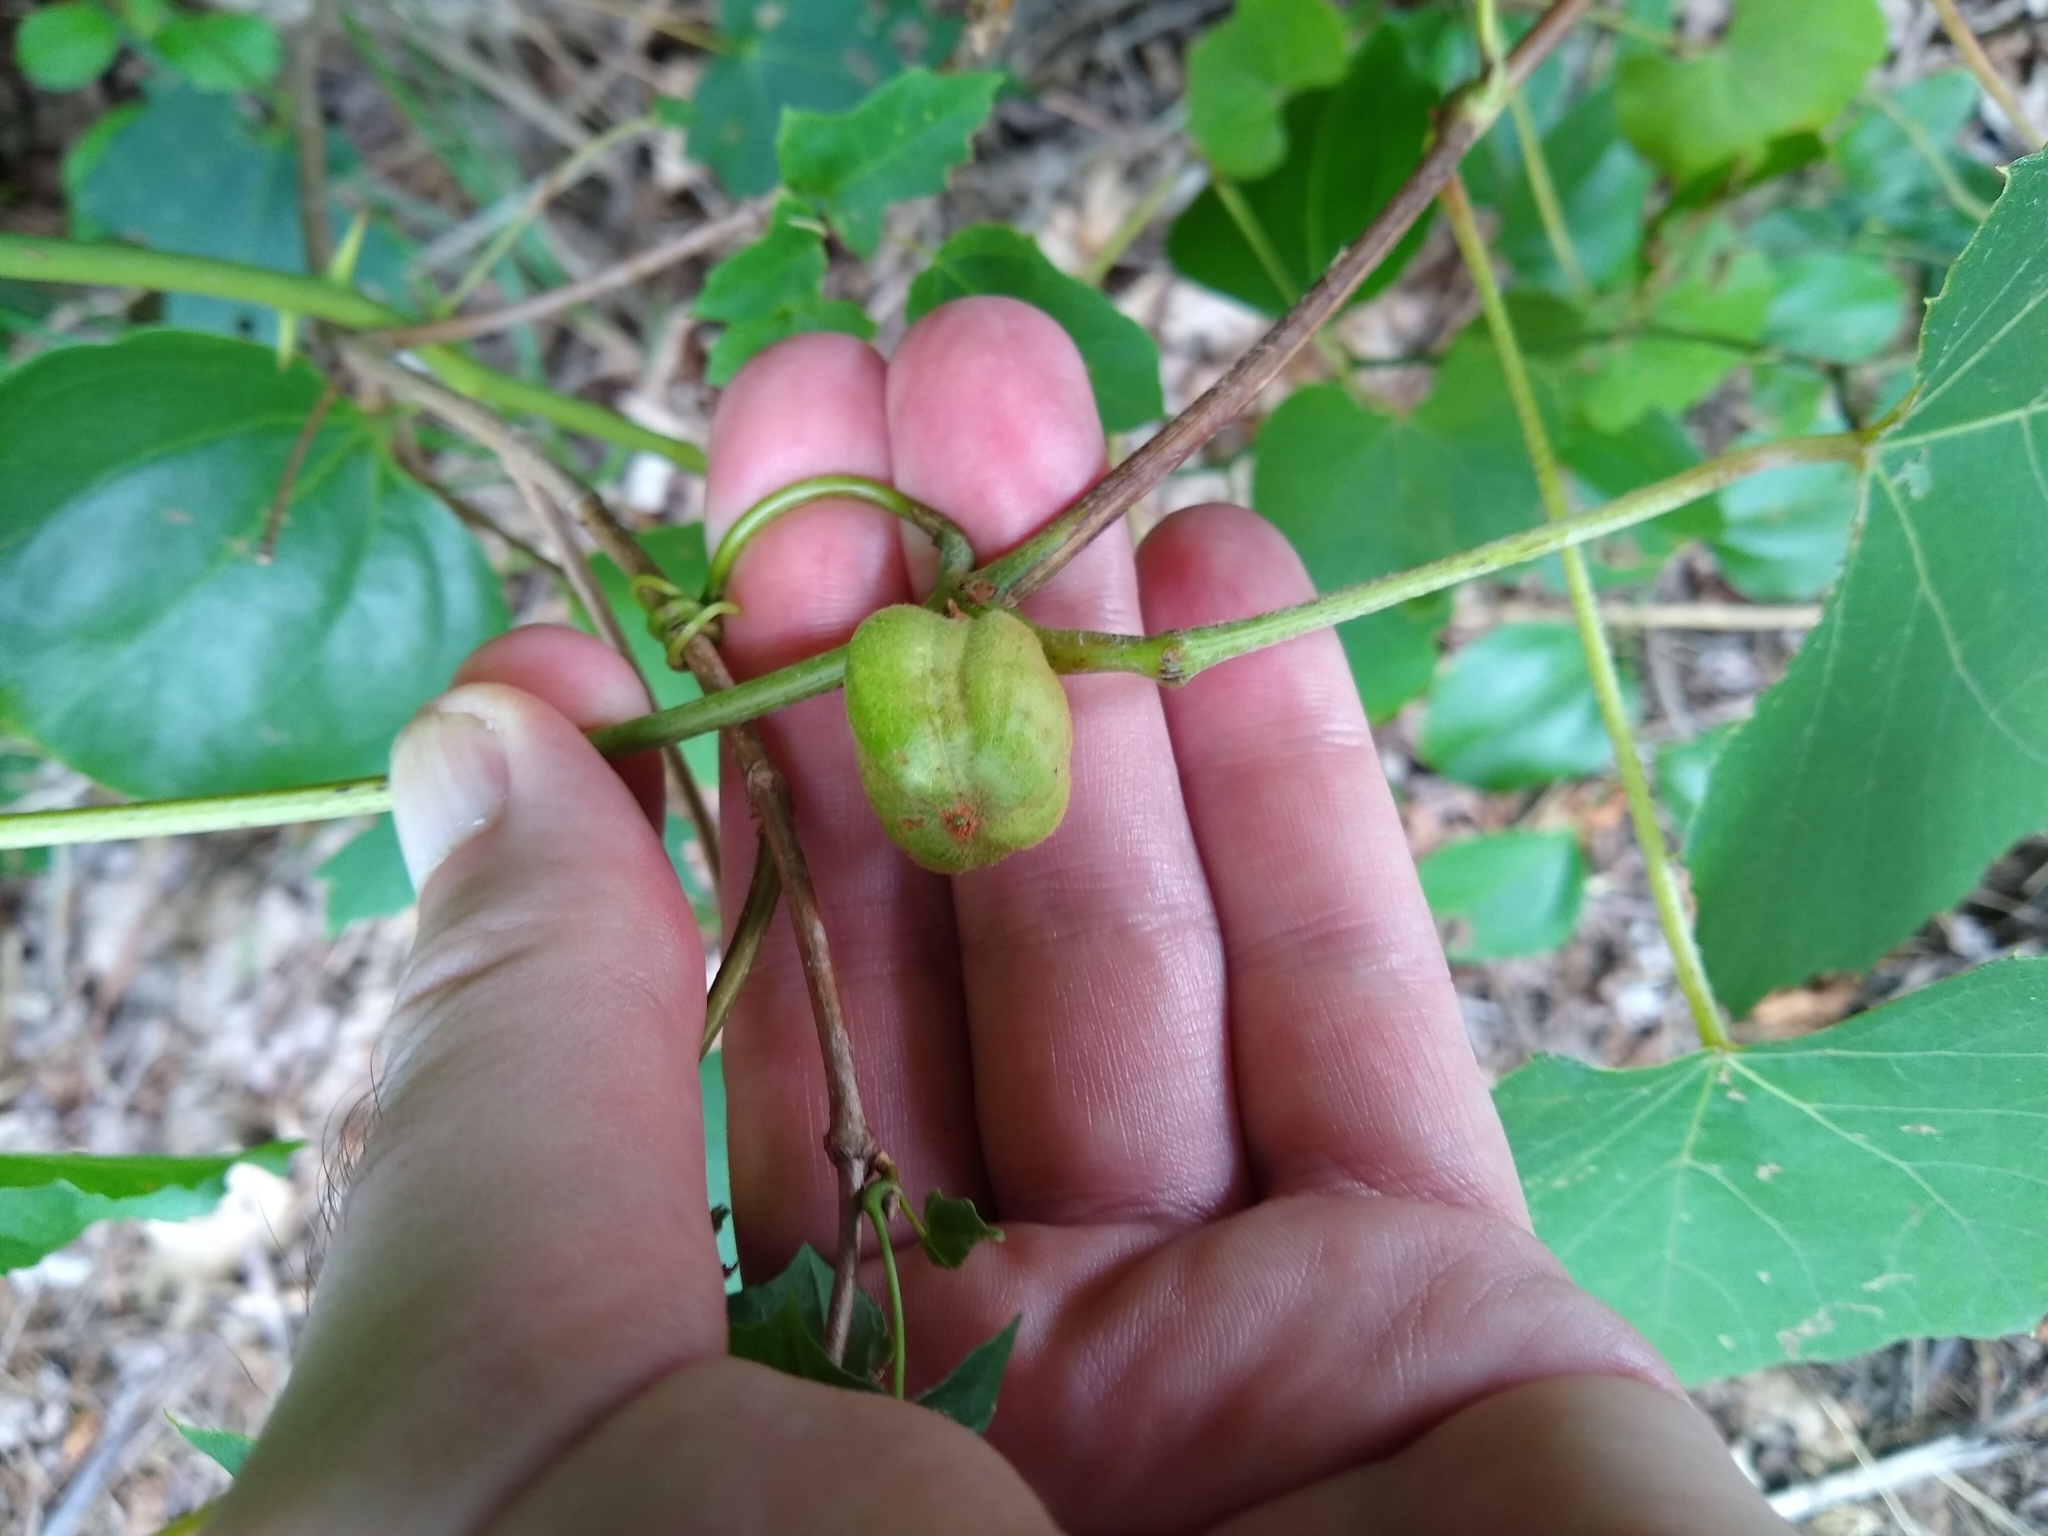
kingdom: Animalia
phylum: Arthropoda
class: Insecta
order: Diptera
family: Cecidomyiidae
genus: Ampelomyia
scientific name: Ampelomyia vitispomum
